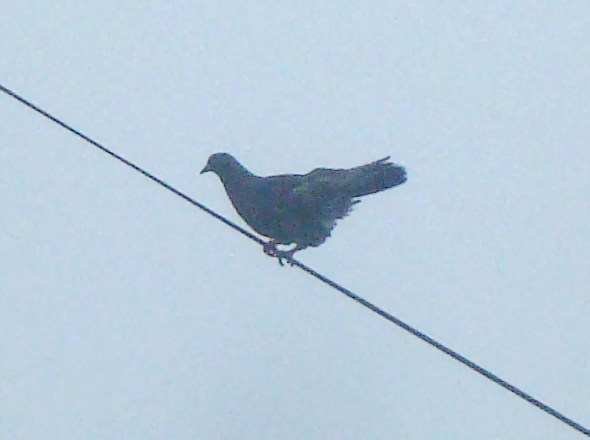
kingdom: Animalia
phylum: Chordata
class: Aves
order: Columbiformes
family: Columbidae
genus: Columba
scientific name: Columba livia
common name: Rock pigeon
